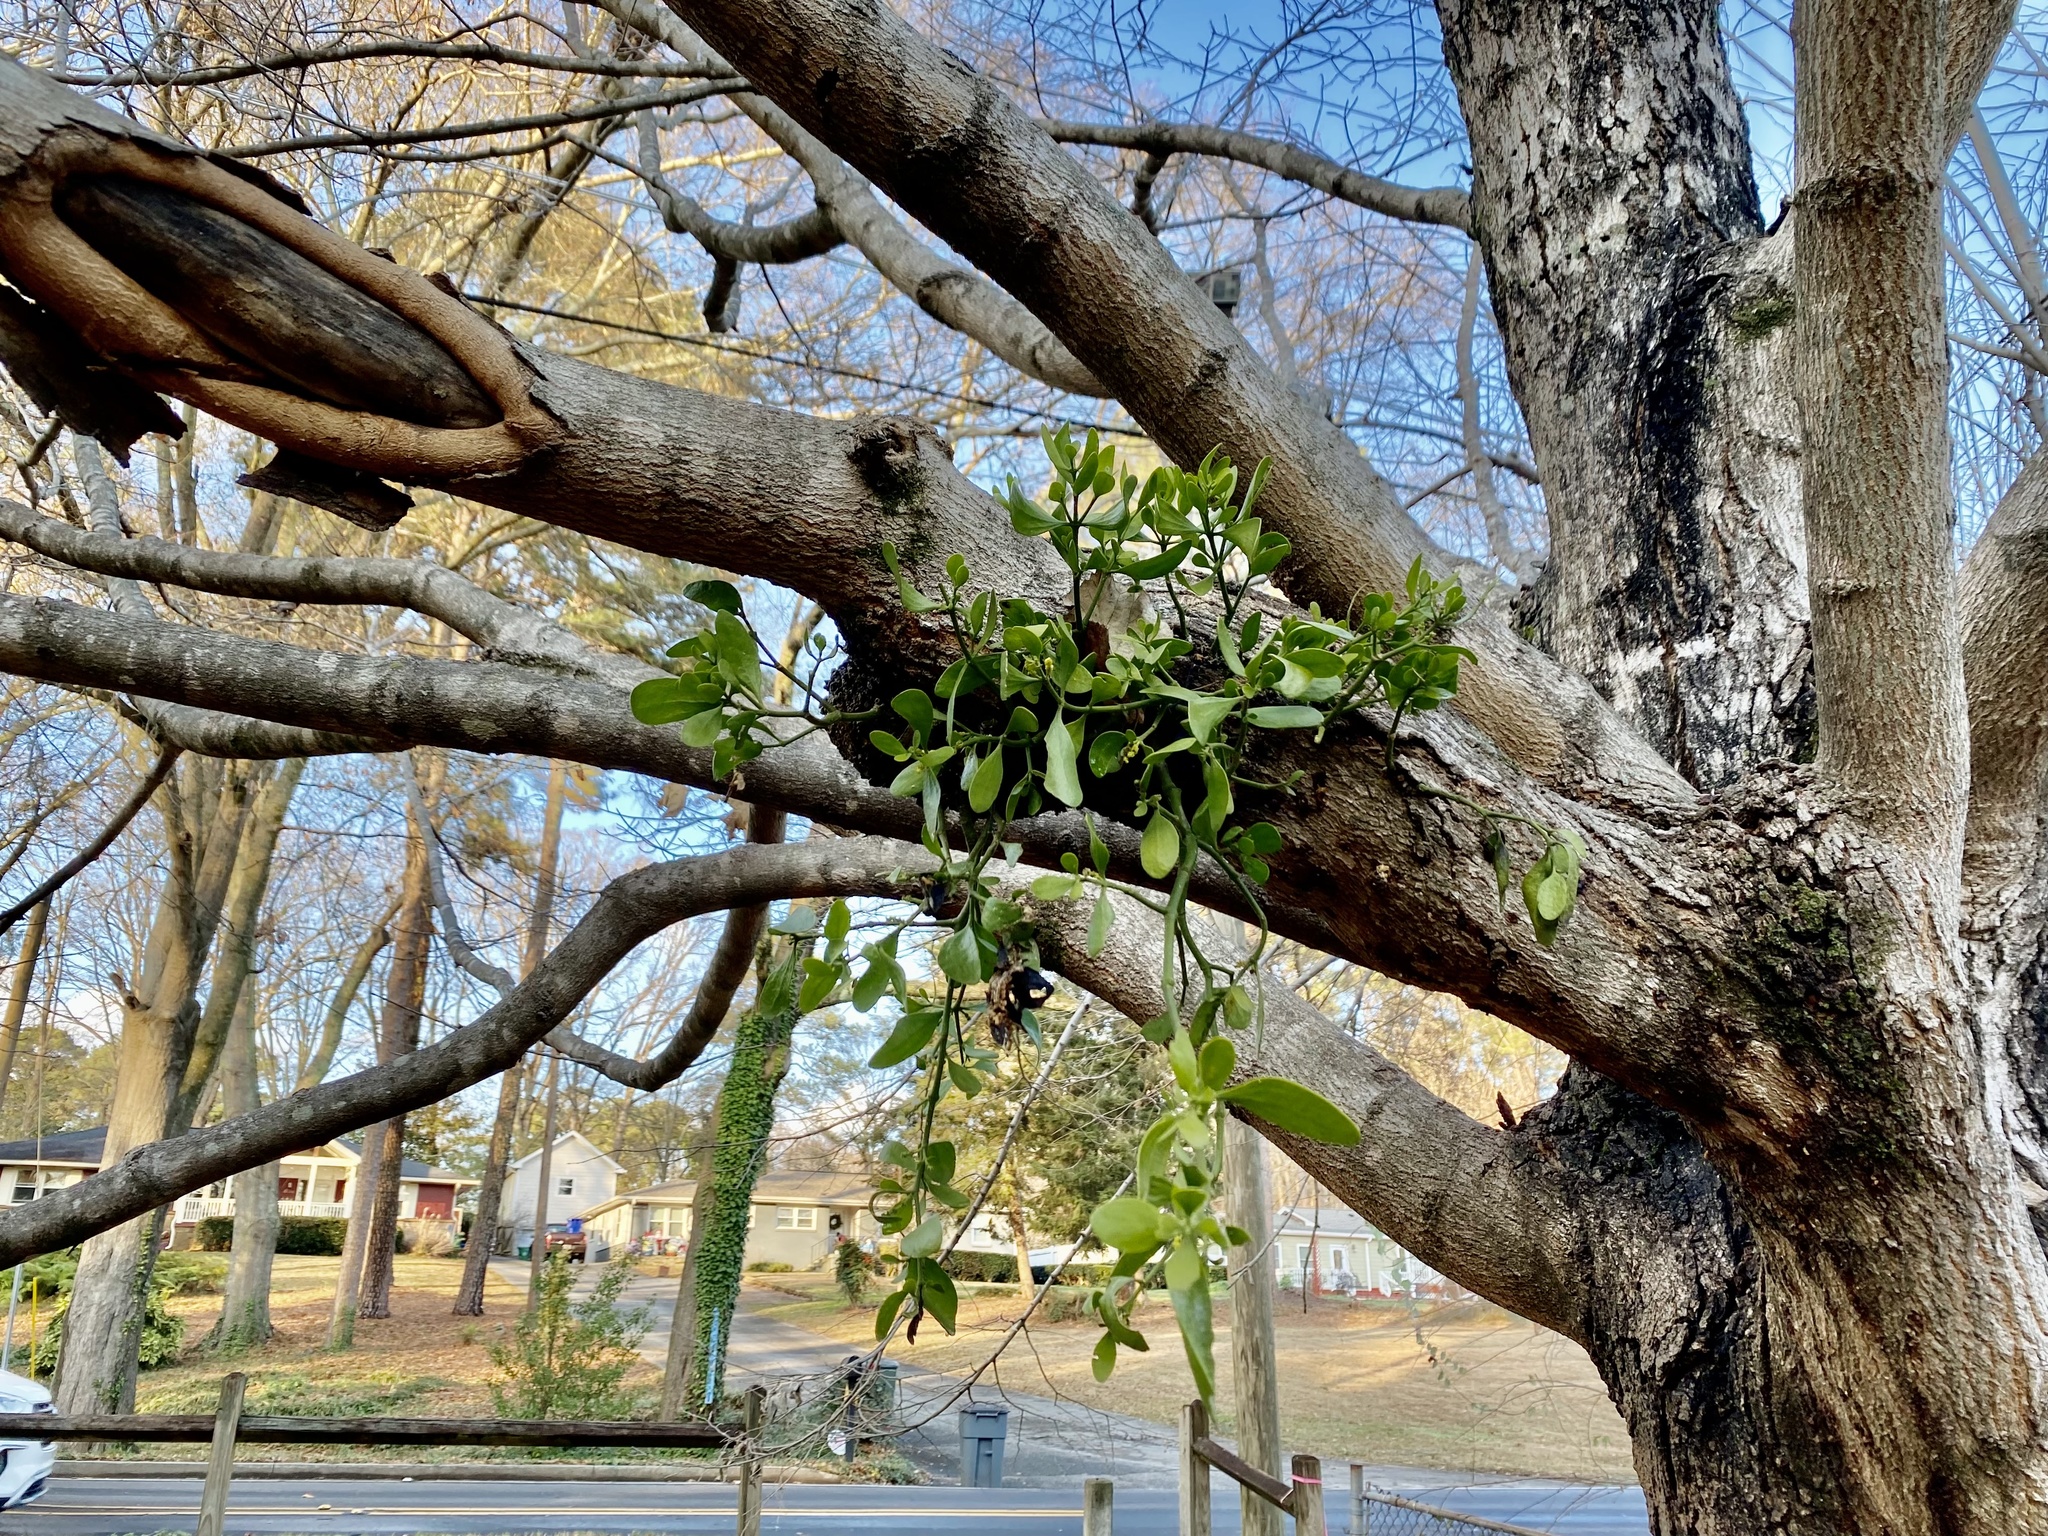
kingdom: Plantae
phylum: Tracheophyta
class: Magnoliopsida
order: Santalales
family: Viscaceae
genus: Phoradendron
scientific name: Phoradendron leucarpum
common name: Pacific mistletoe
